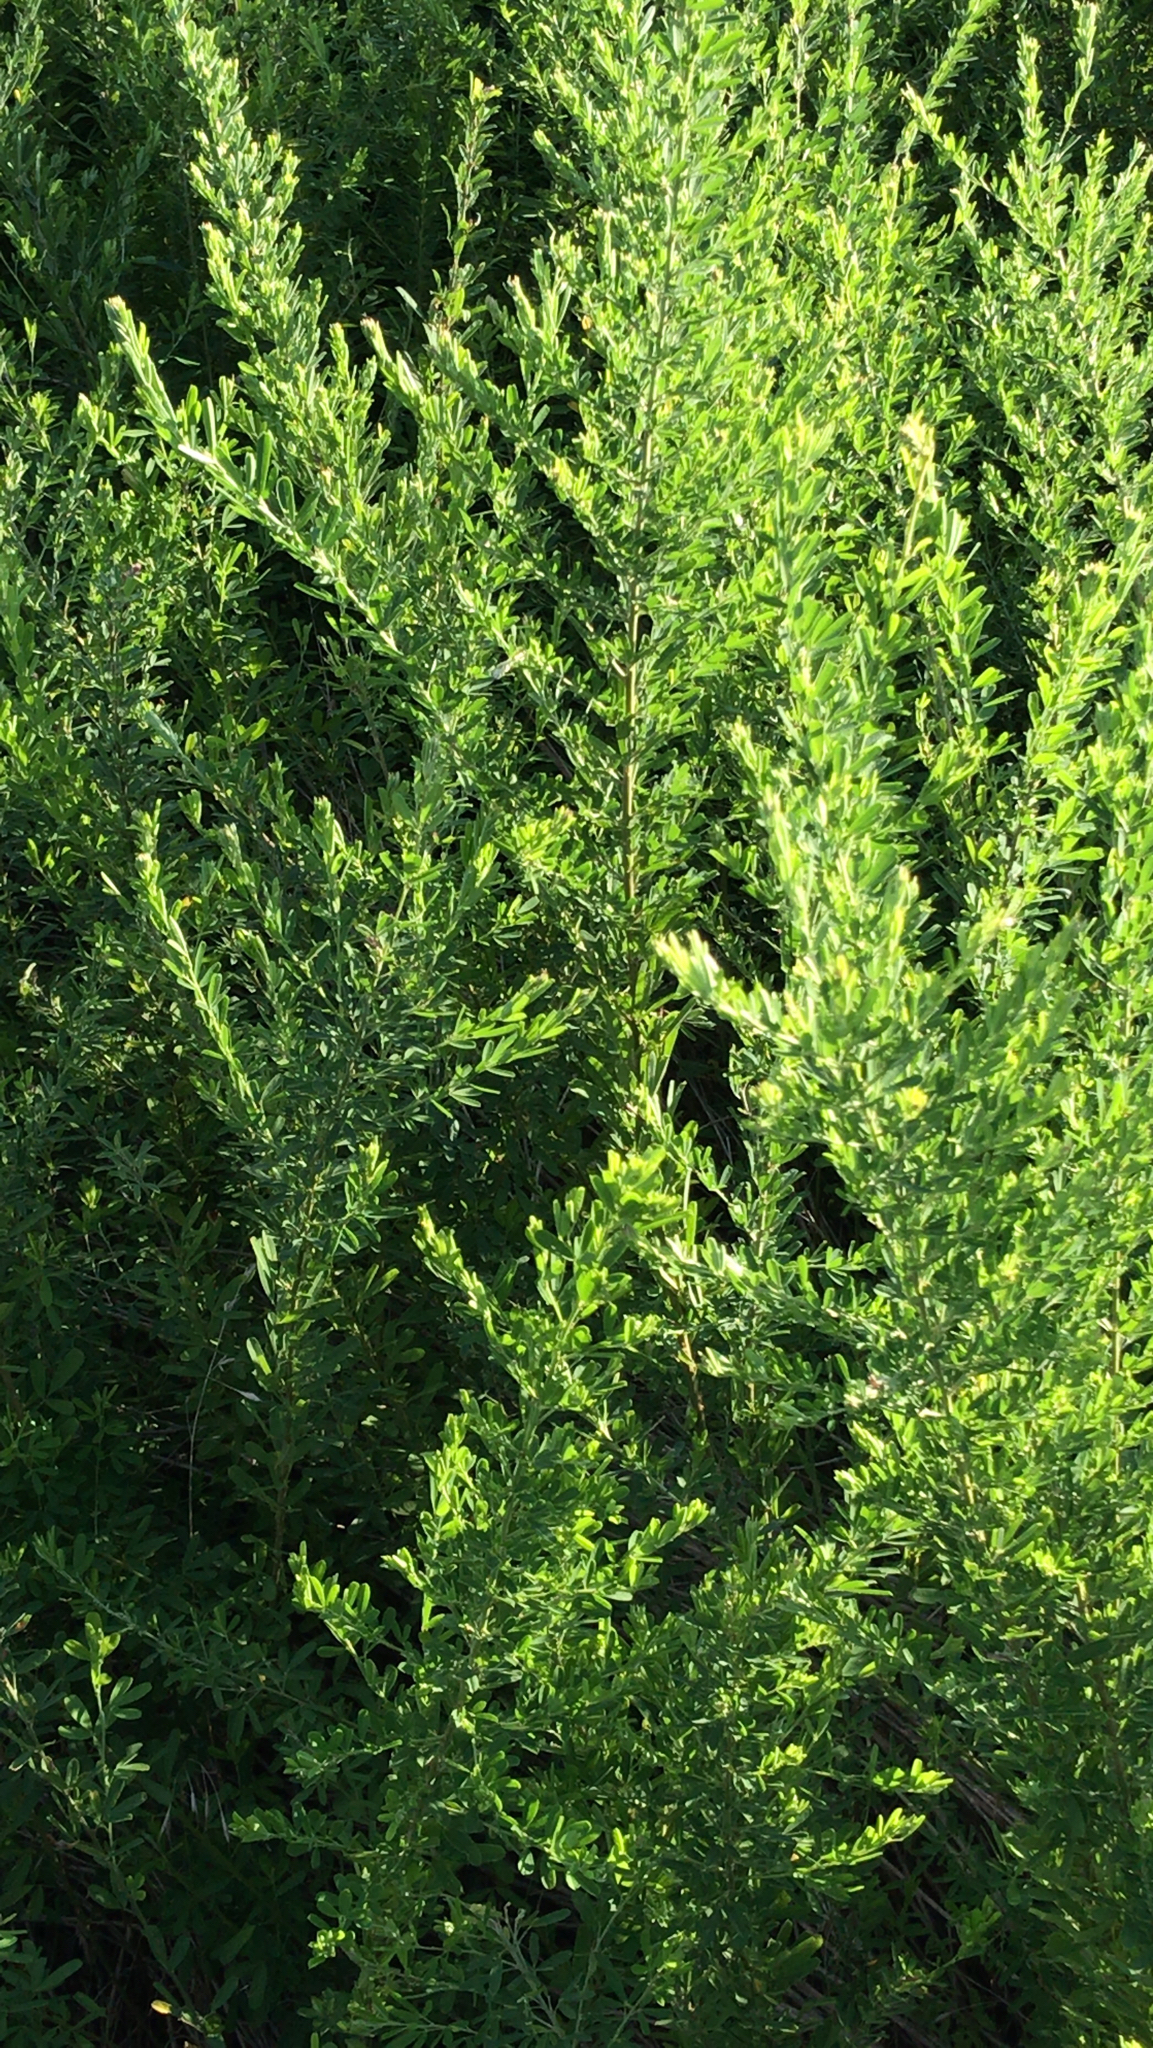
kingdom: Plantae
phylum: Tracheophyta
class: Magnoliopsida
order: Fabales
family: Fabaceae
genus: Lespedeza
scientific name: Lespedeza cuneata
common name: Chinese bush-clover
